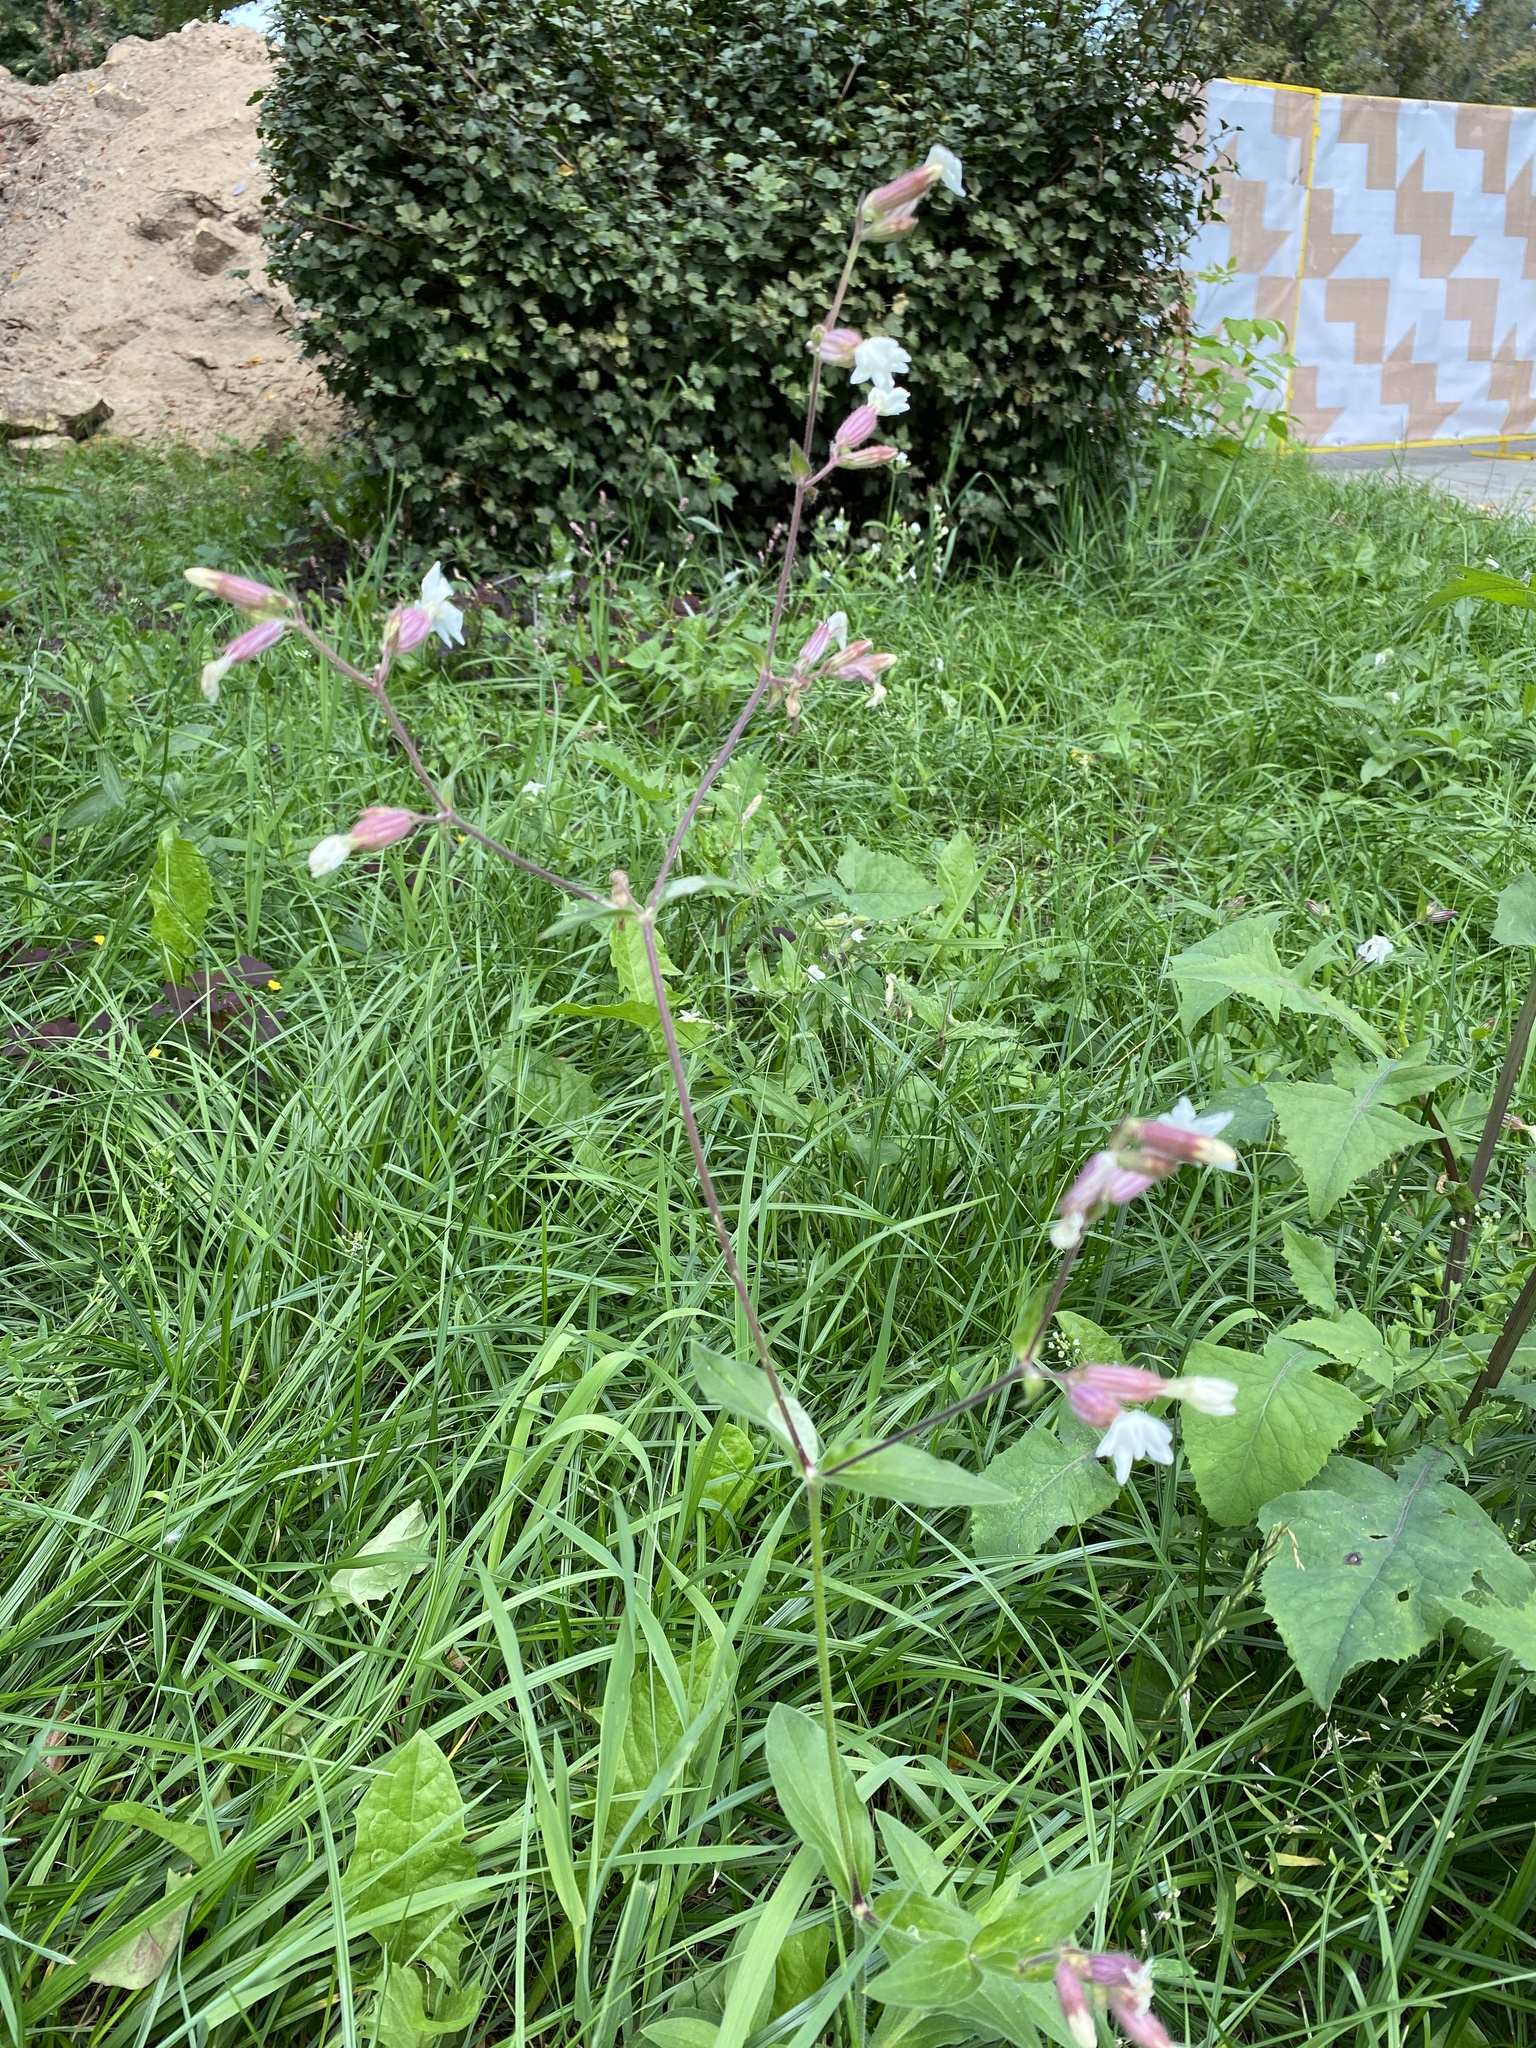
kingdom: Plantae
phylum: Tracheophyta
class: Magnoliopsida
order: Caryophyllales
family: Caryophyllaceae
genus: Silene
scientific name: Silene latifolia
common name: White campion
